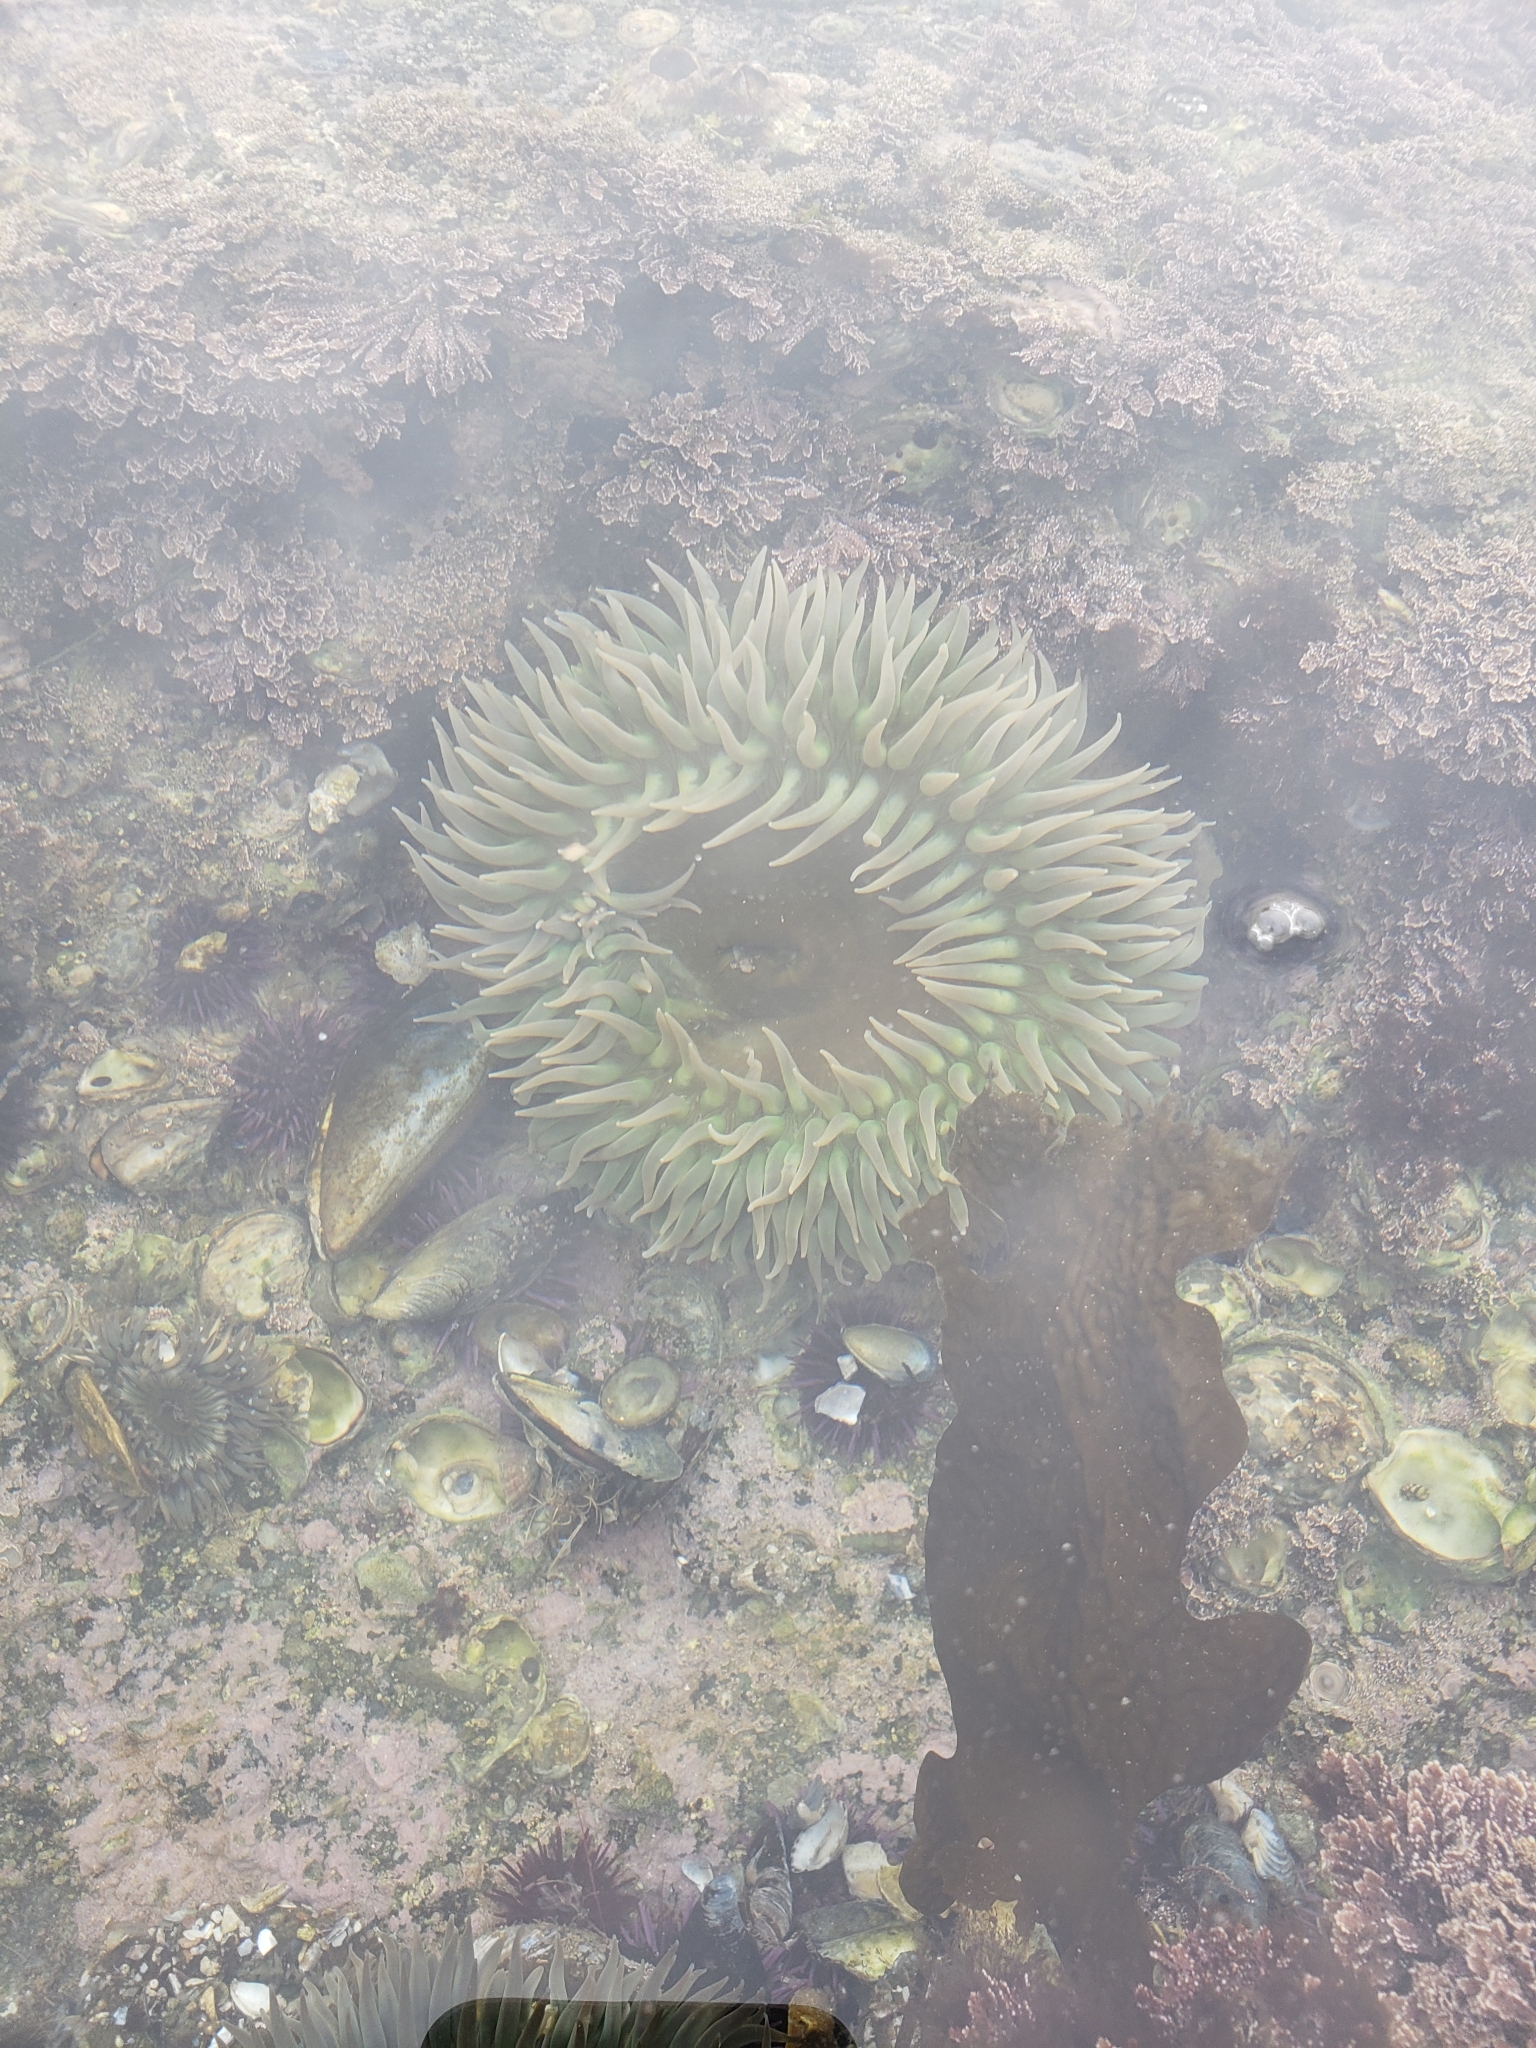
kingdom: Animalia
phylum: Cnidaria
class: Anthozoa
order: Actiniaria
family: Actiniidae
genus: Anthopleura
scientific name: Anthopleura xanthogrammica
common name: Giant green anemone
